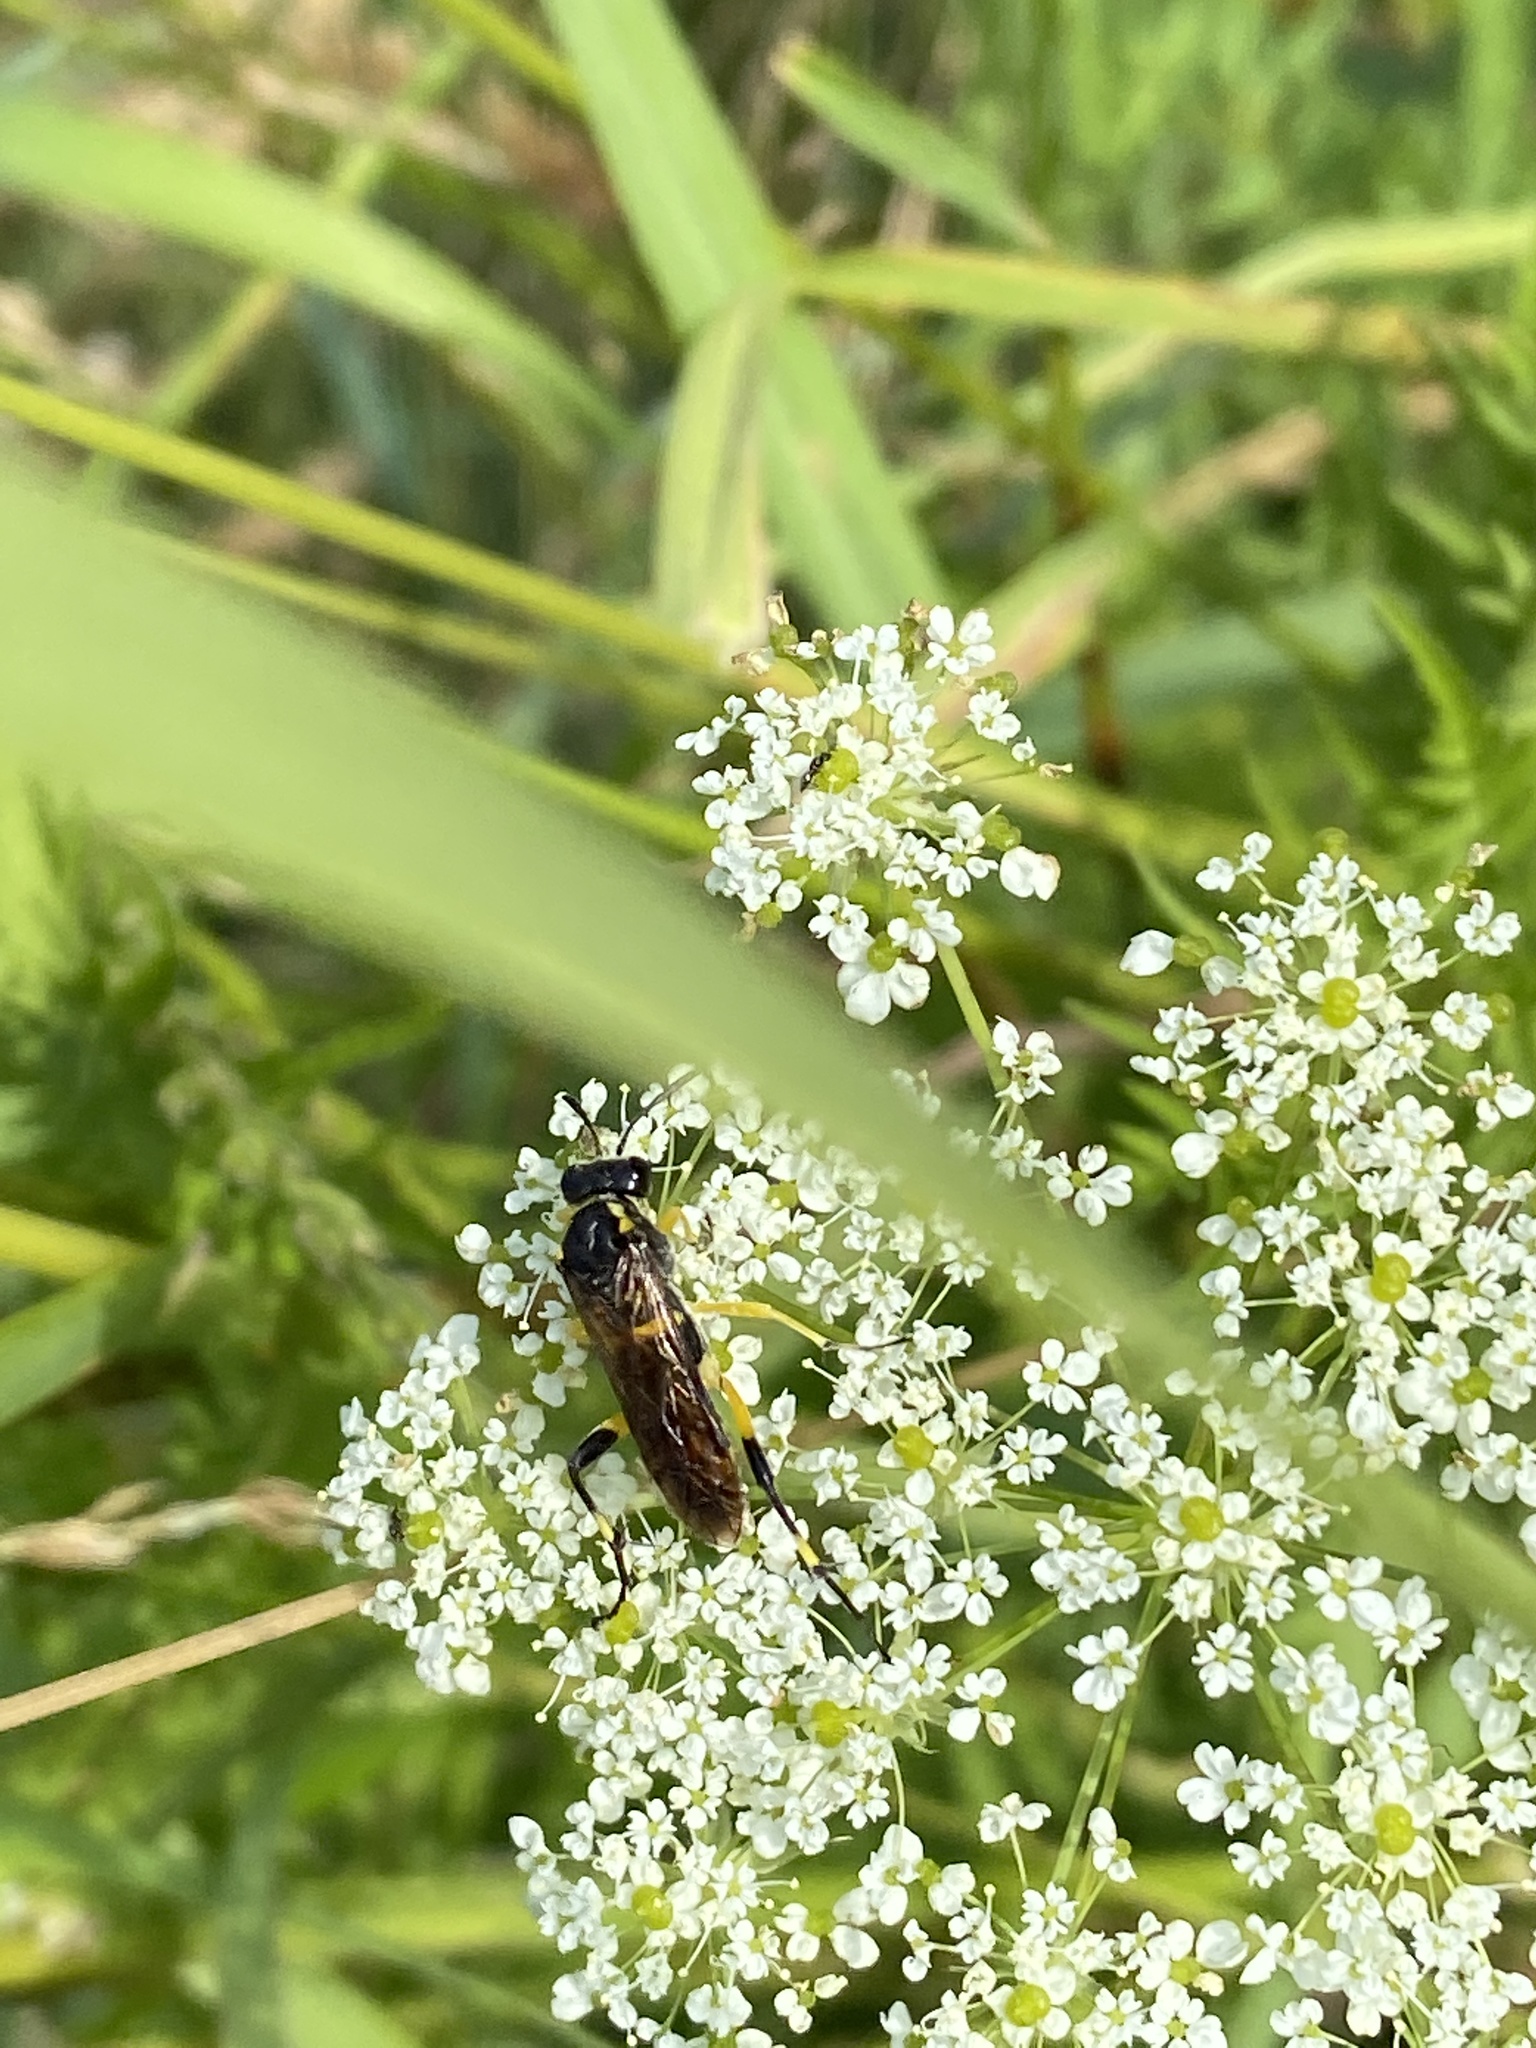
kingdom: Animalia
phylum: Arthropoda
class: Insecta
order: Hymenoptera
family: Tenthredinidae
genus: Macrophya
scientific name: Macrophya montana
